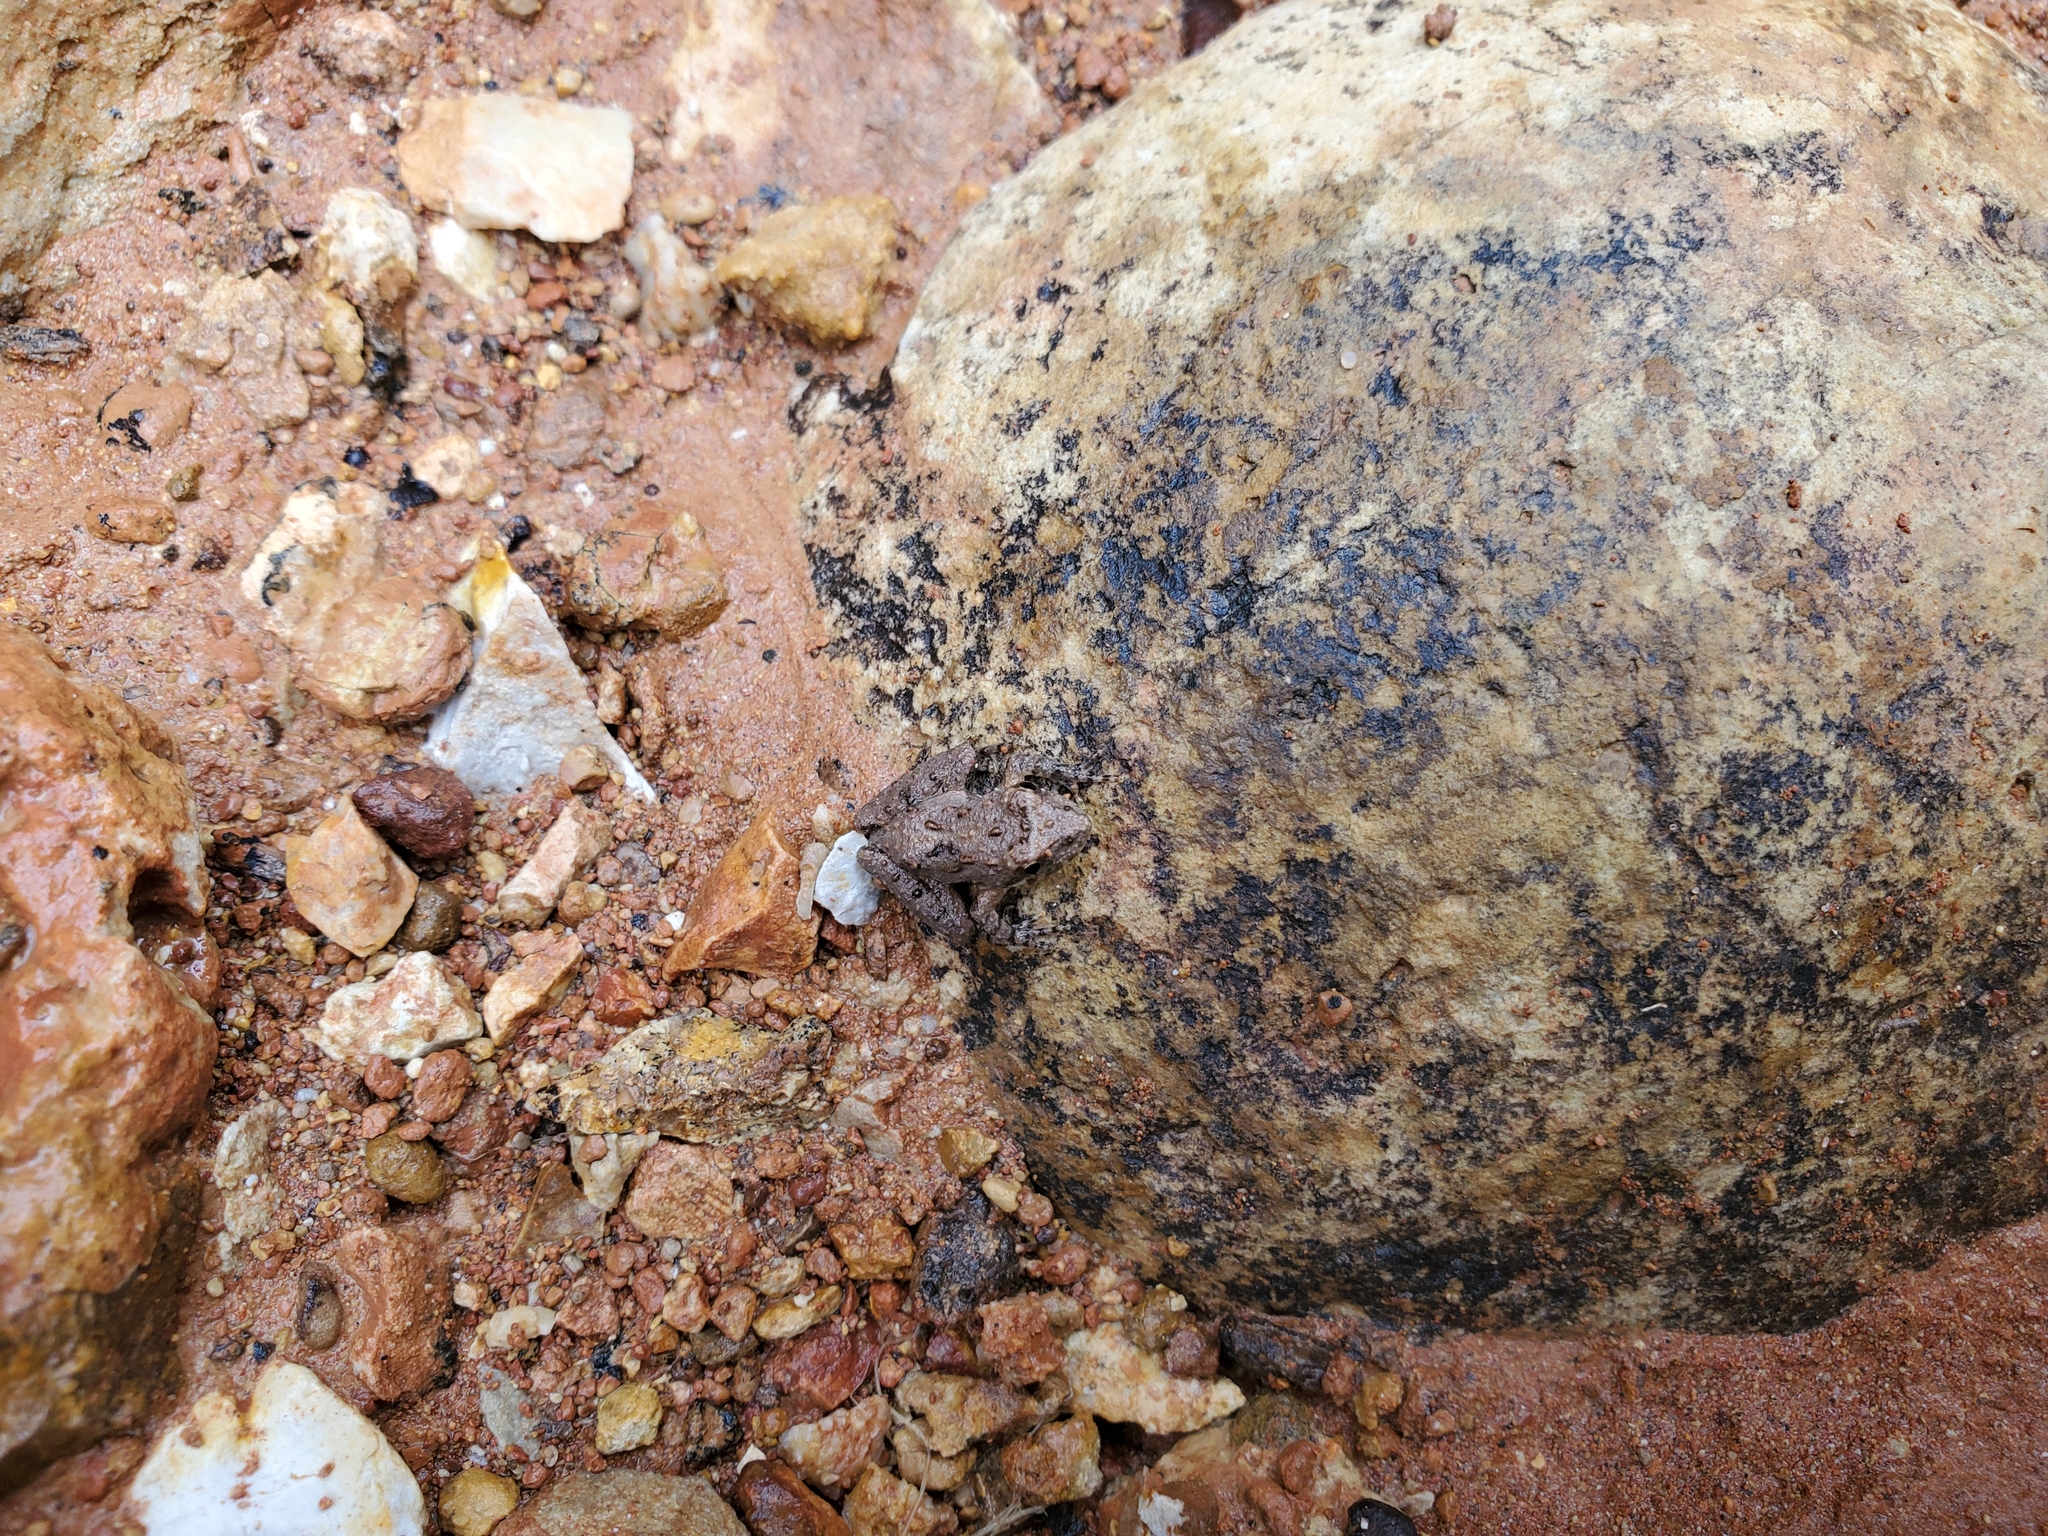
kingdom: Animalia
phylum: Chordata
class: Amphibia
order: Anura
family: Hylidae
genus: Acris
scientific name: Acris crepitans
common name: Northern cricket frog
